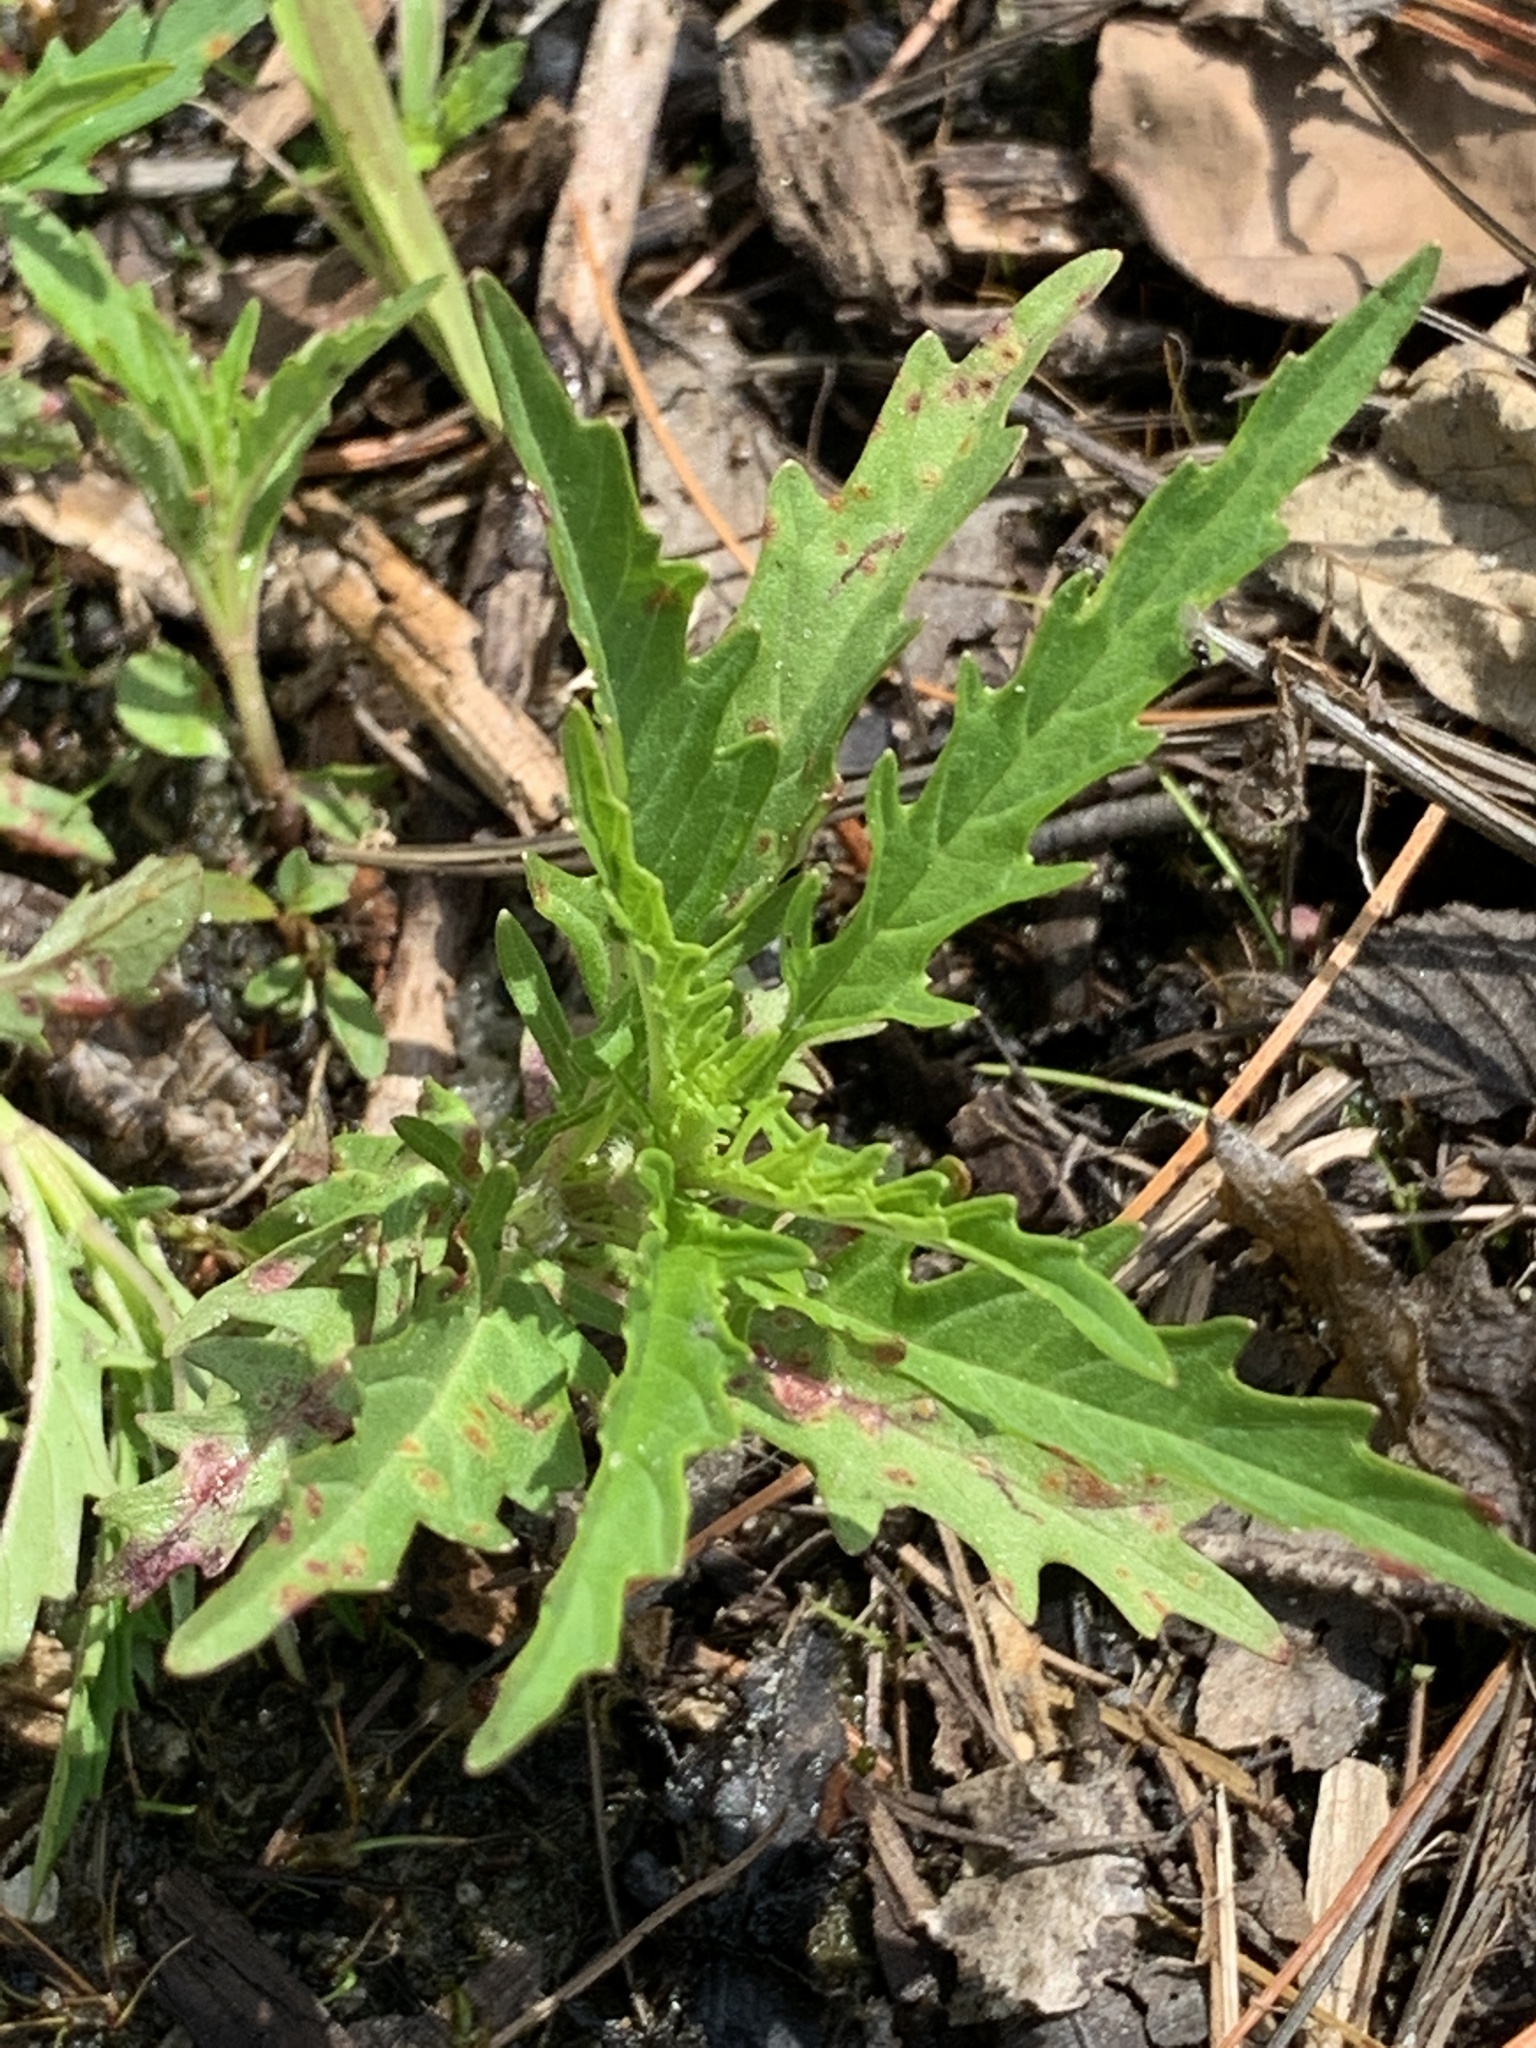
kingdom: Plantae
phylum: Tracheophyta
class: Magnoliopsida
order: Lamiales
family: Lamiaceae
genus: Lycopus
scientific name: Lycopus americanus
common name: American bugleweed
